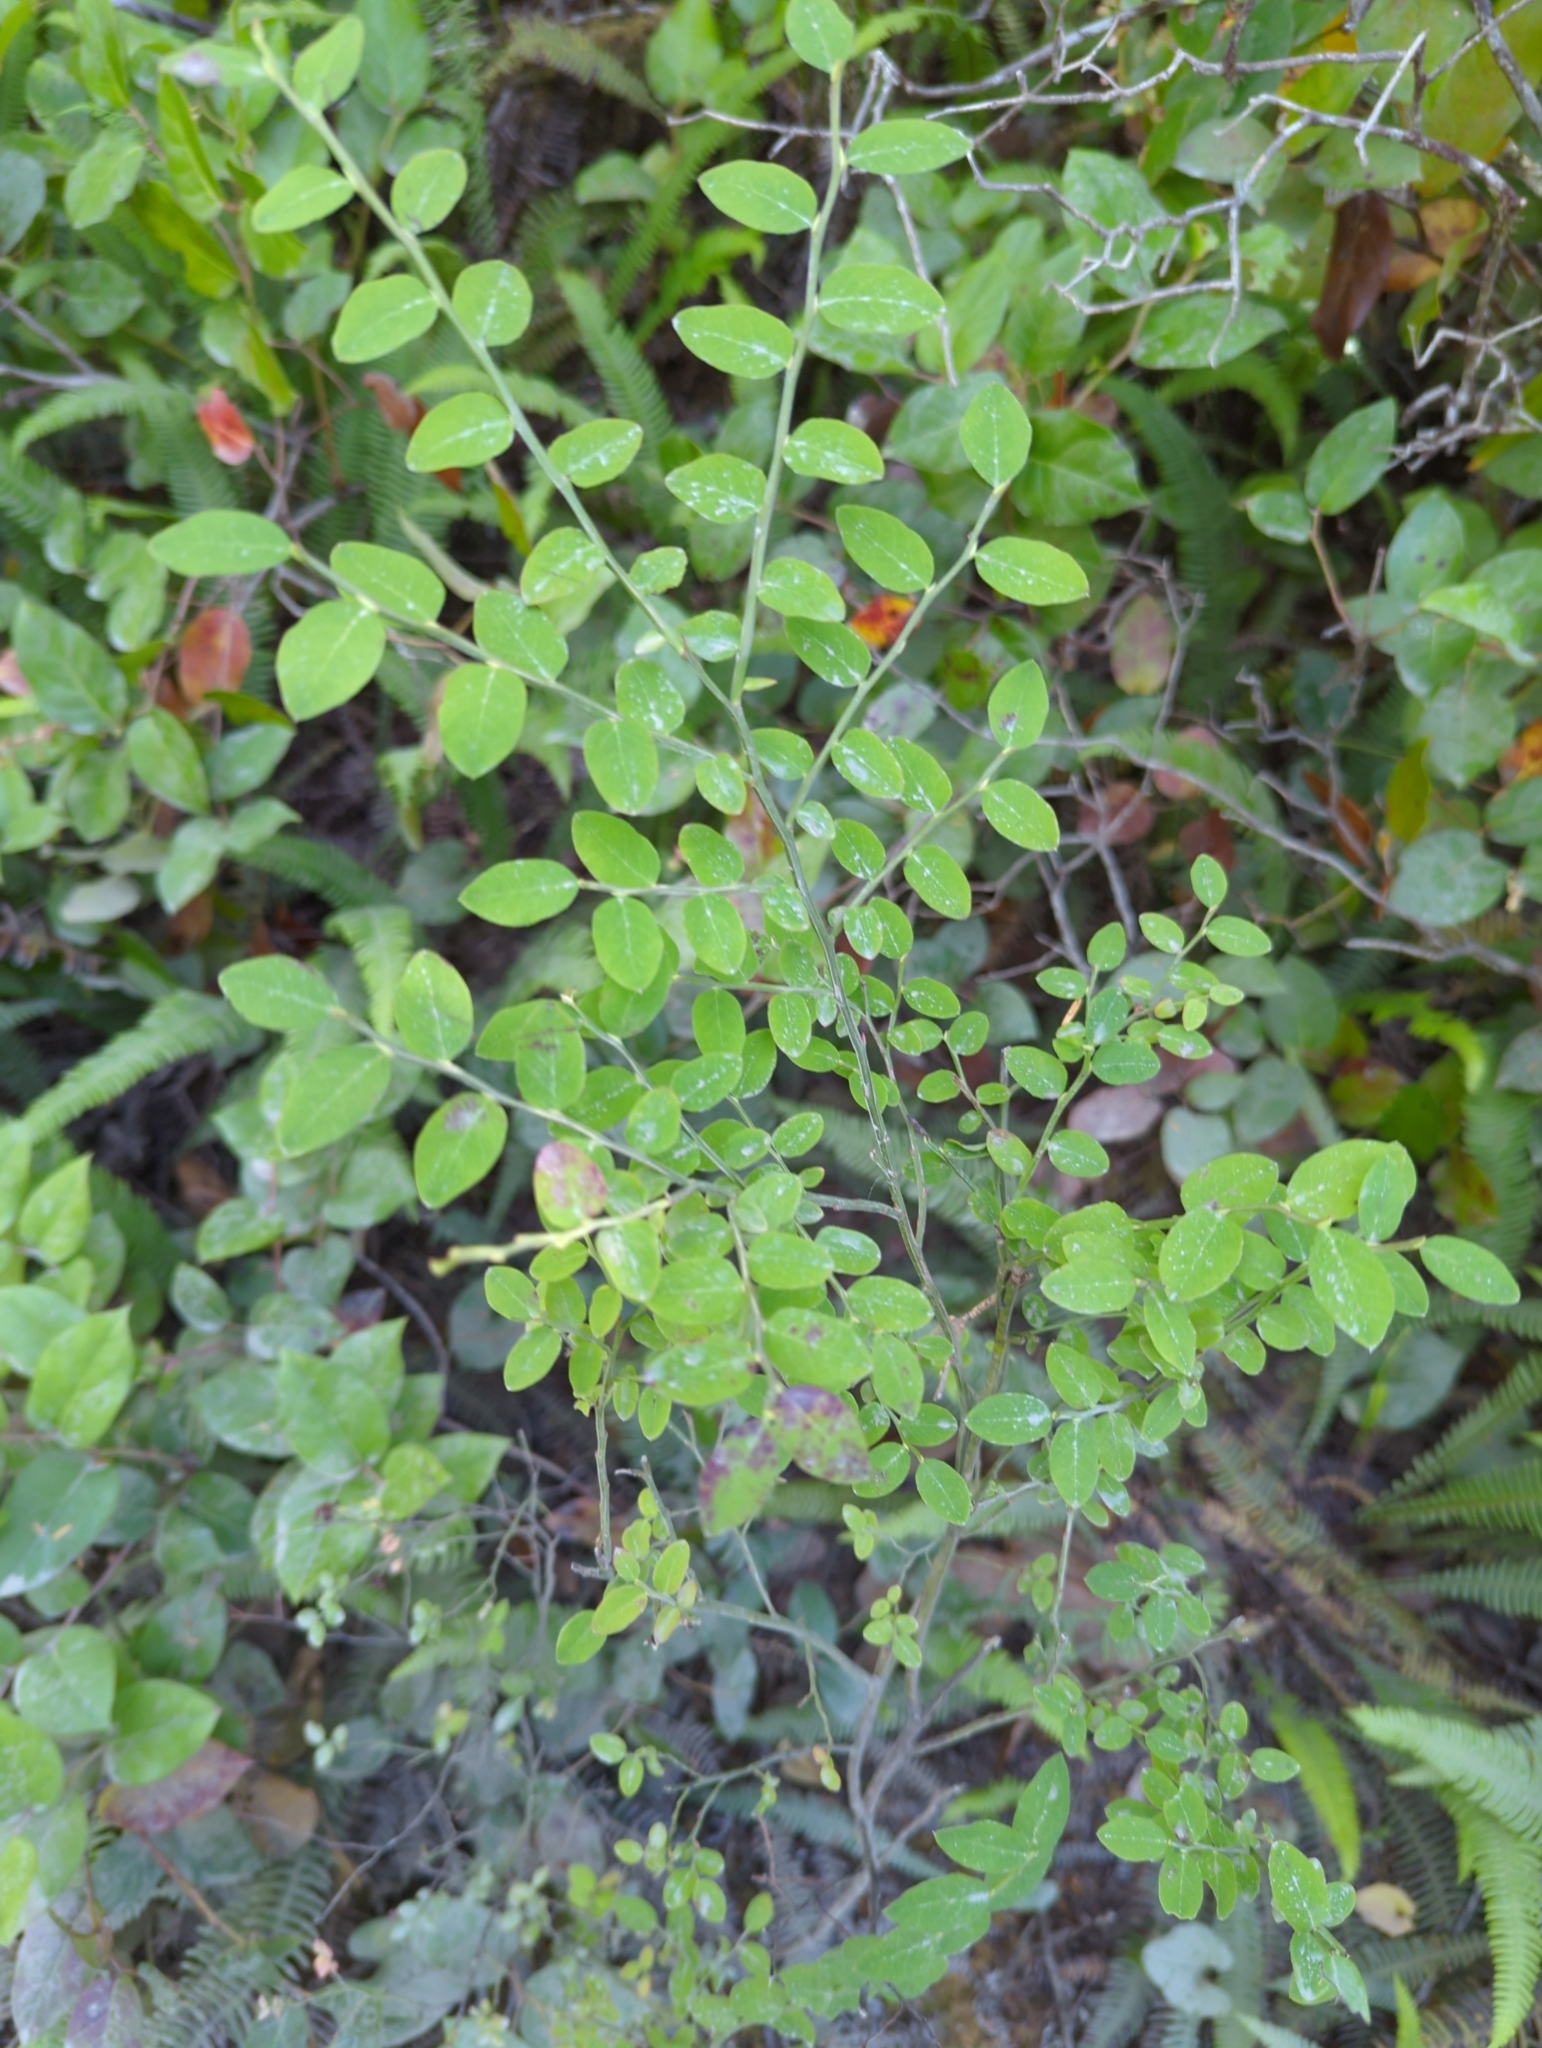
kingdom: Plantae
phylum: Tracheophyta
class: Magnoliopsida
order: Ericales
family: Ericaceae
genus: Vaccinium
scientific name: Vaccinium parvifolium
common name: Red-huckleberry
